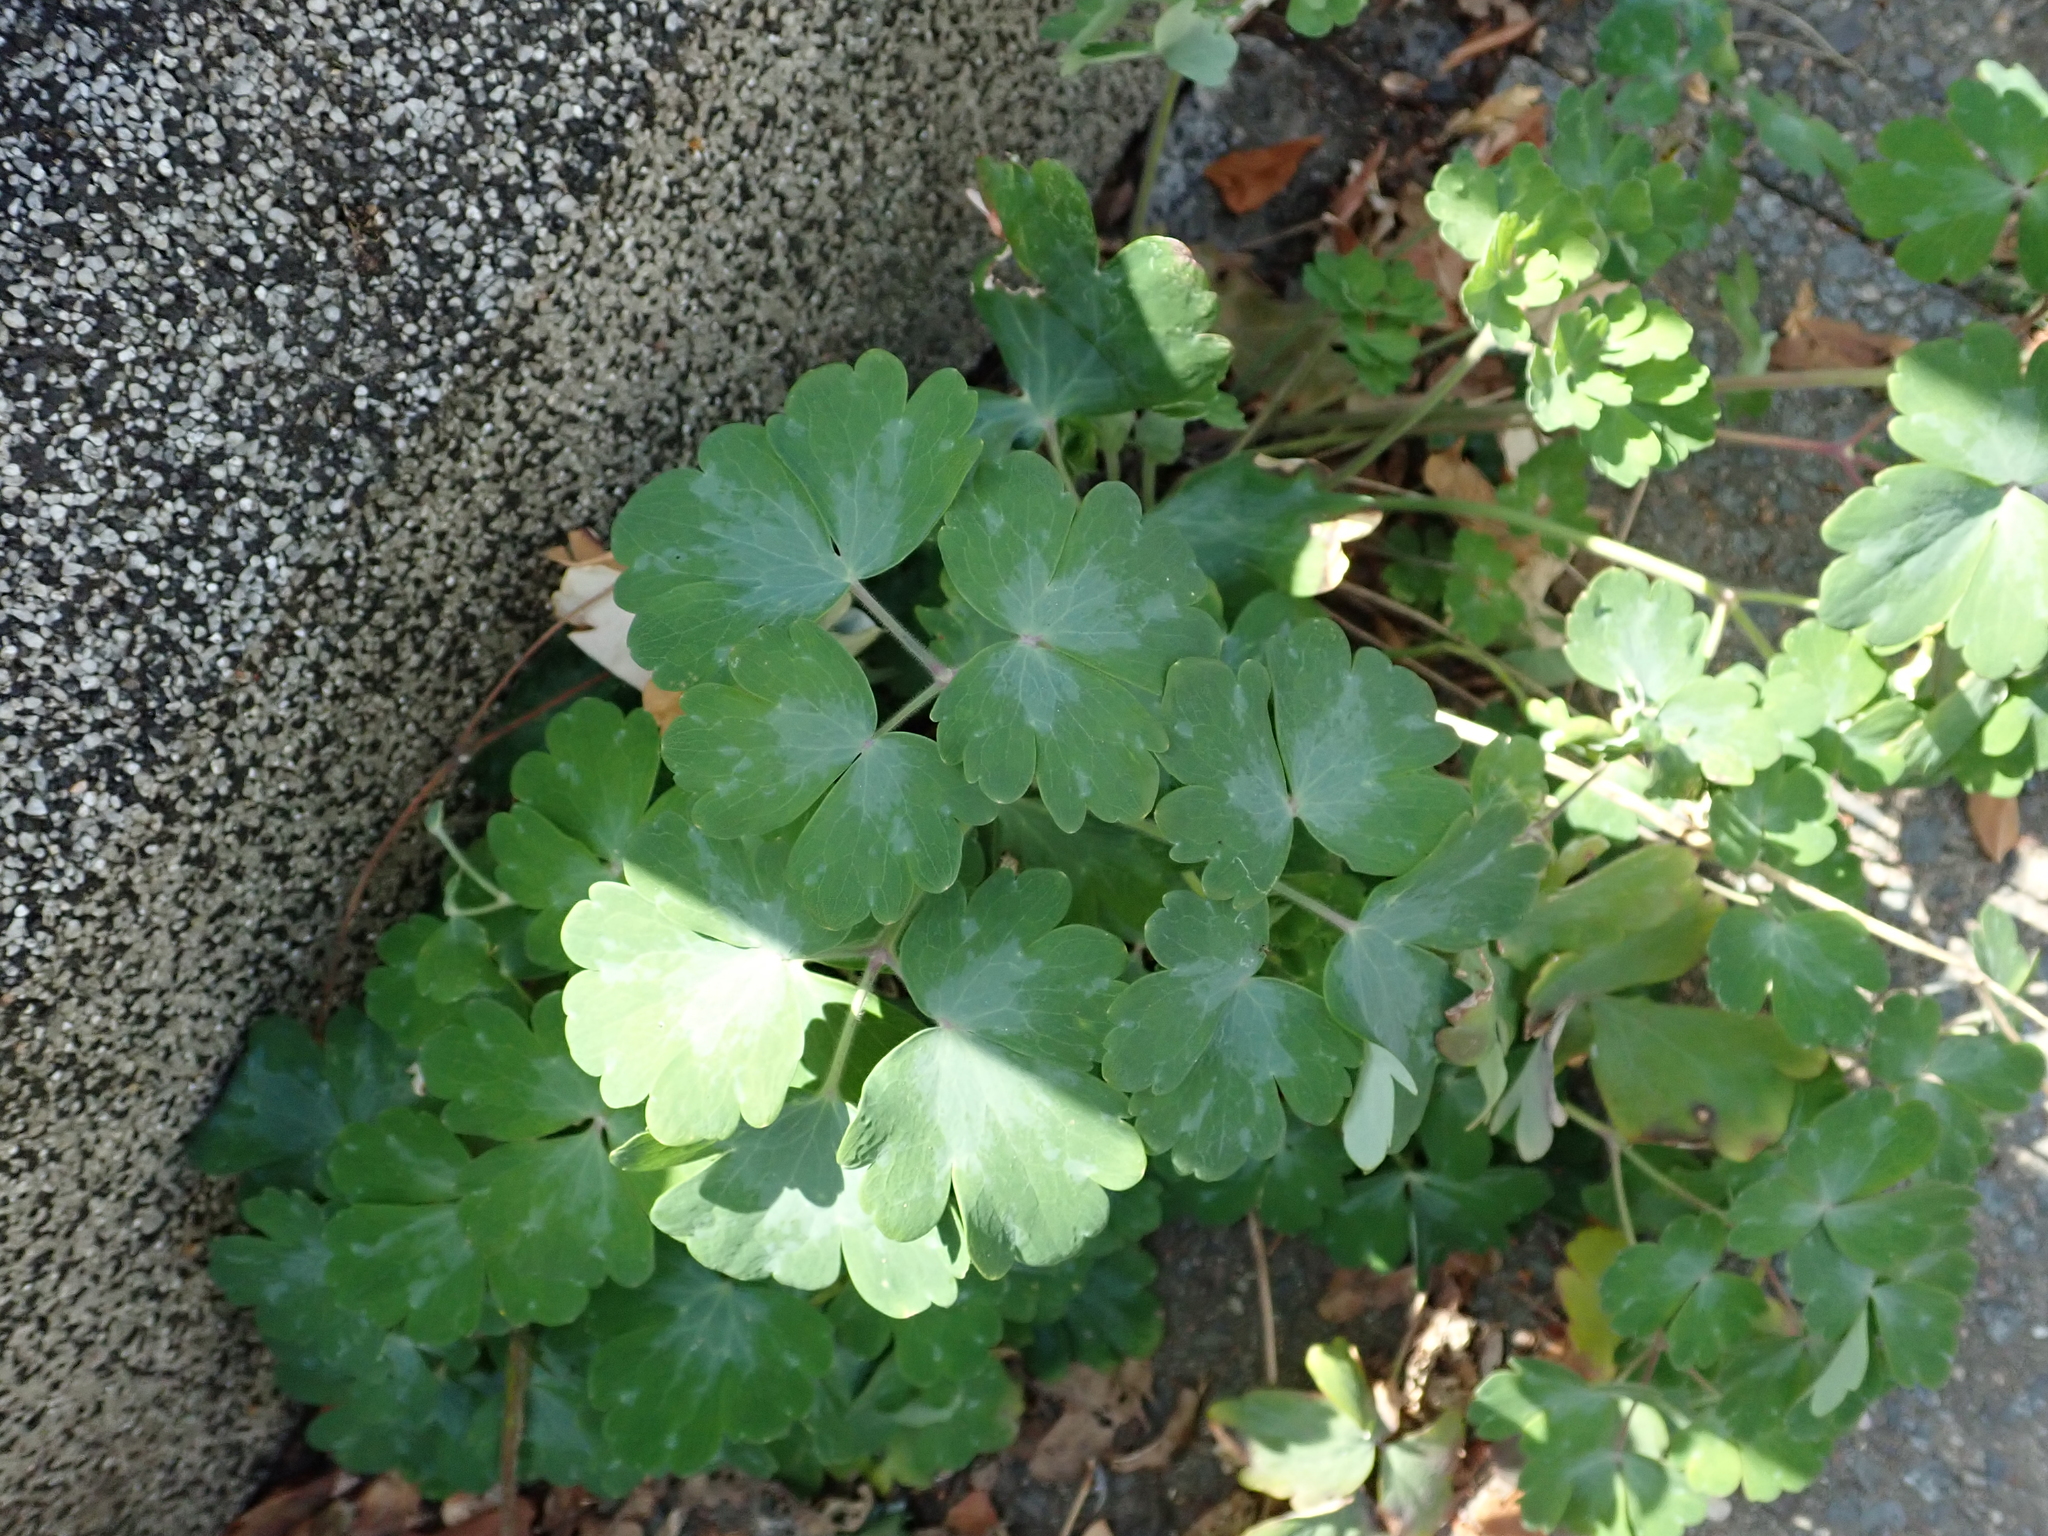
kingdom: Plantae
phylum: Tracheophyta
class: Magnoliopsida
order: Ranunculales
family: Ranunculaceae
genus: Aquilegia
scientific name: Aquilegia vulgaris
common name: Columbine
